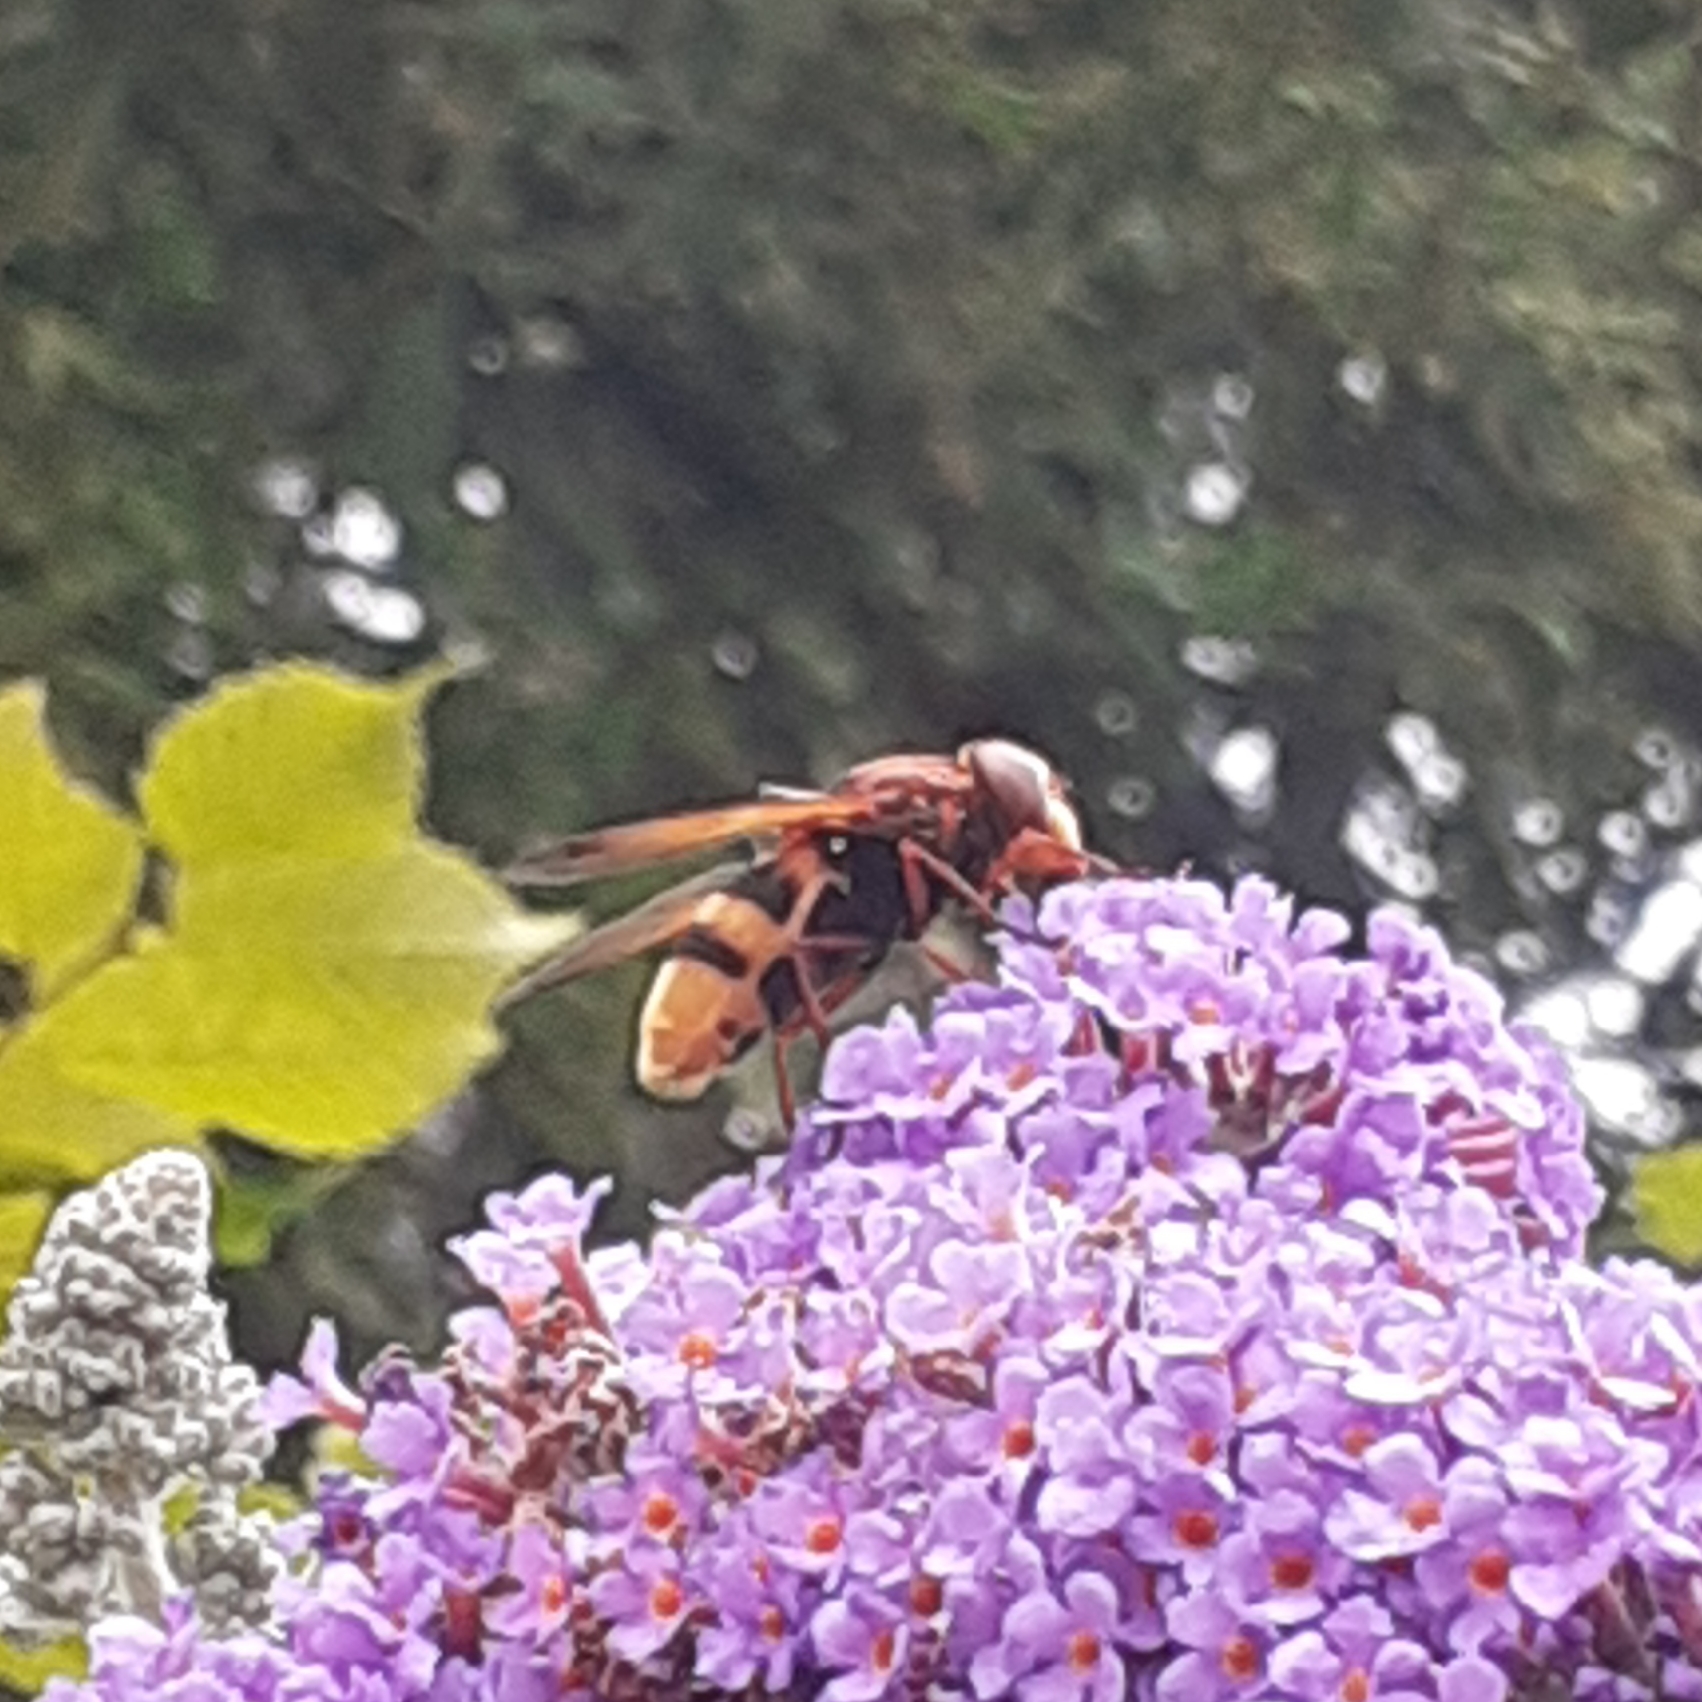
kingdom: Animalia
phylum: Arthropoda
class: Insecta
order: Diptera
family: Syrphidae
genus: Volucella
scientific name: Volucella zonaria
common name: Hornet hoverfly
